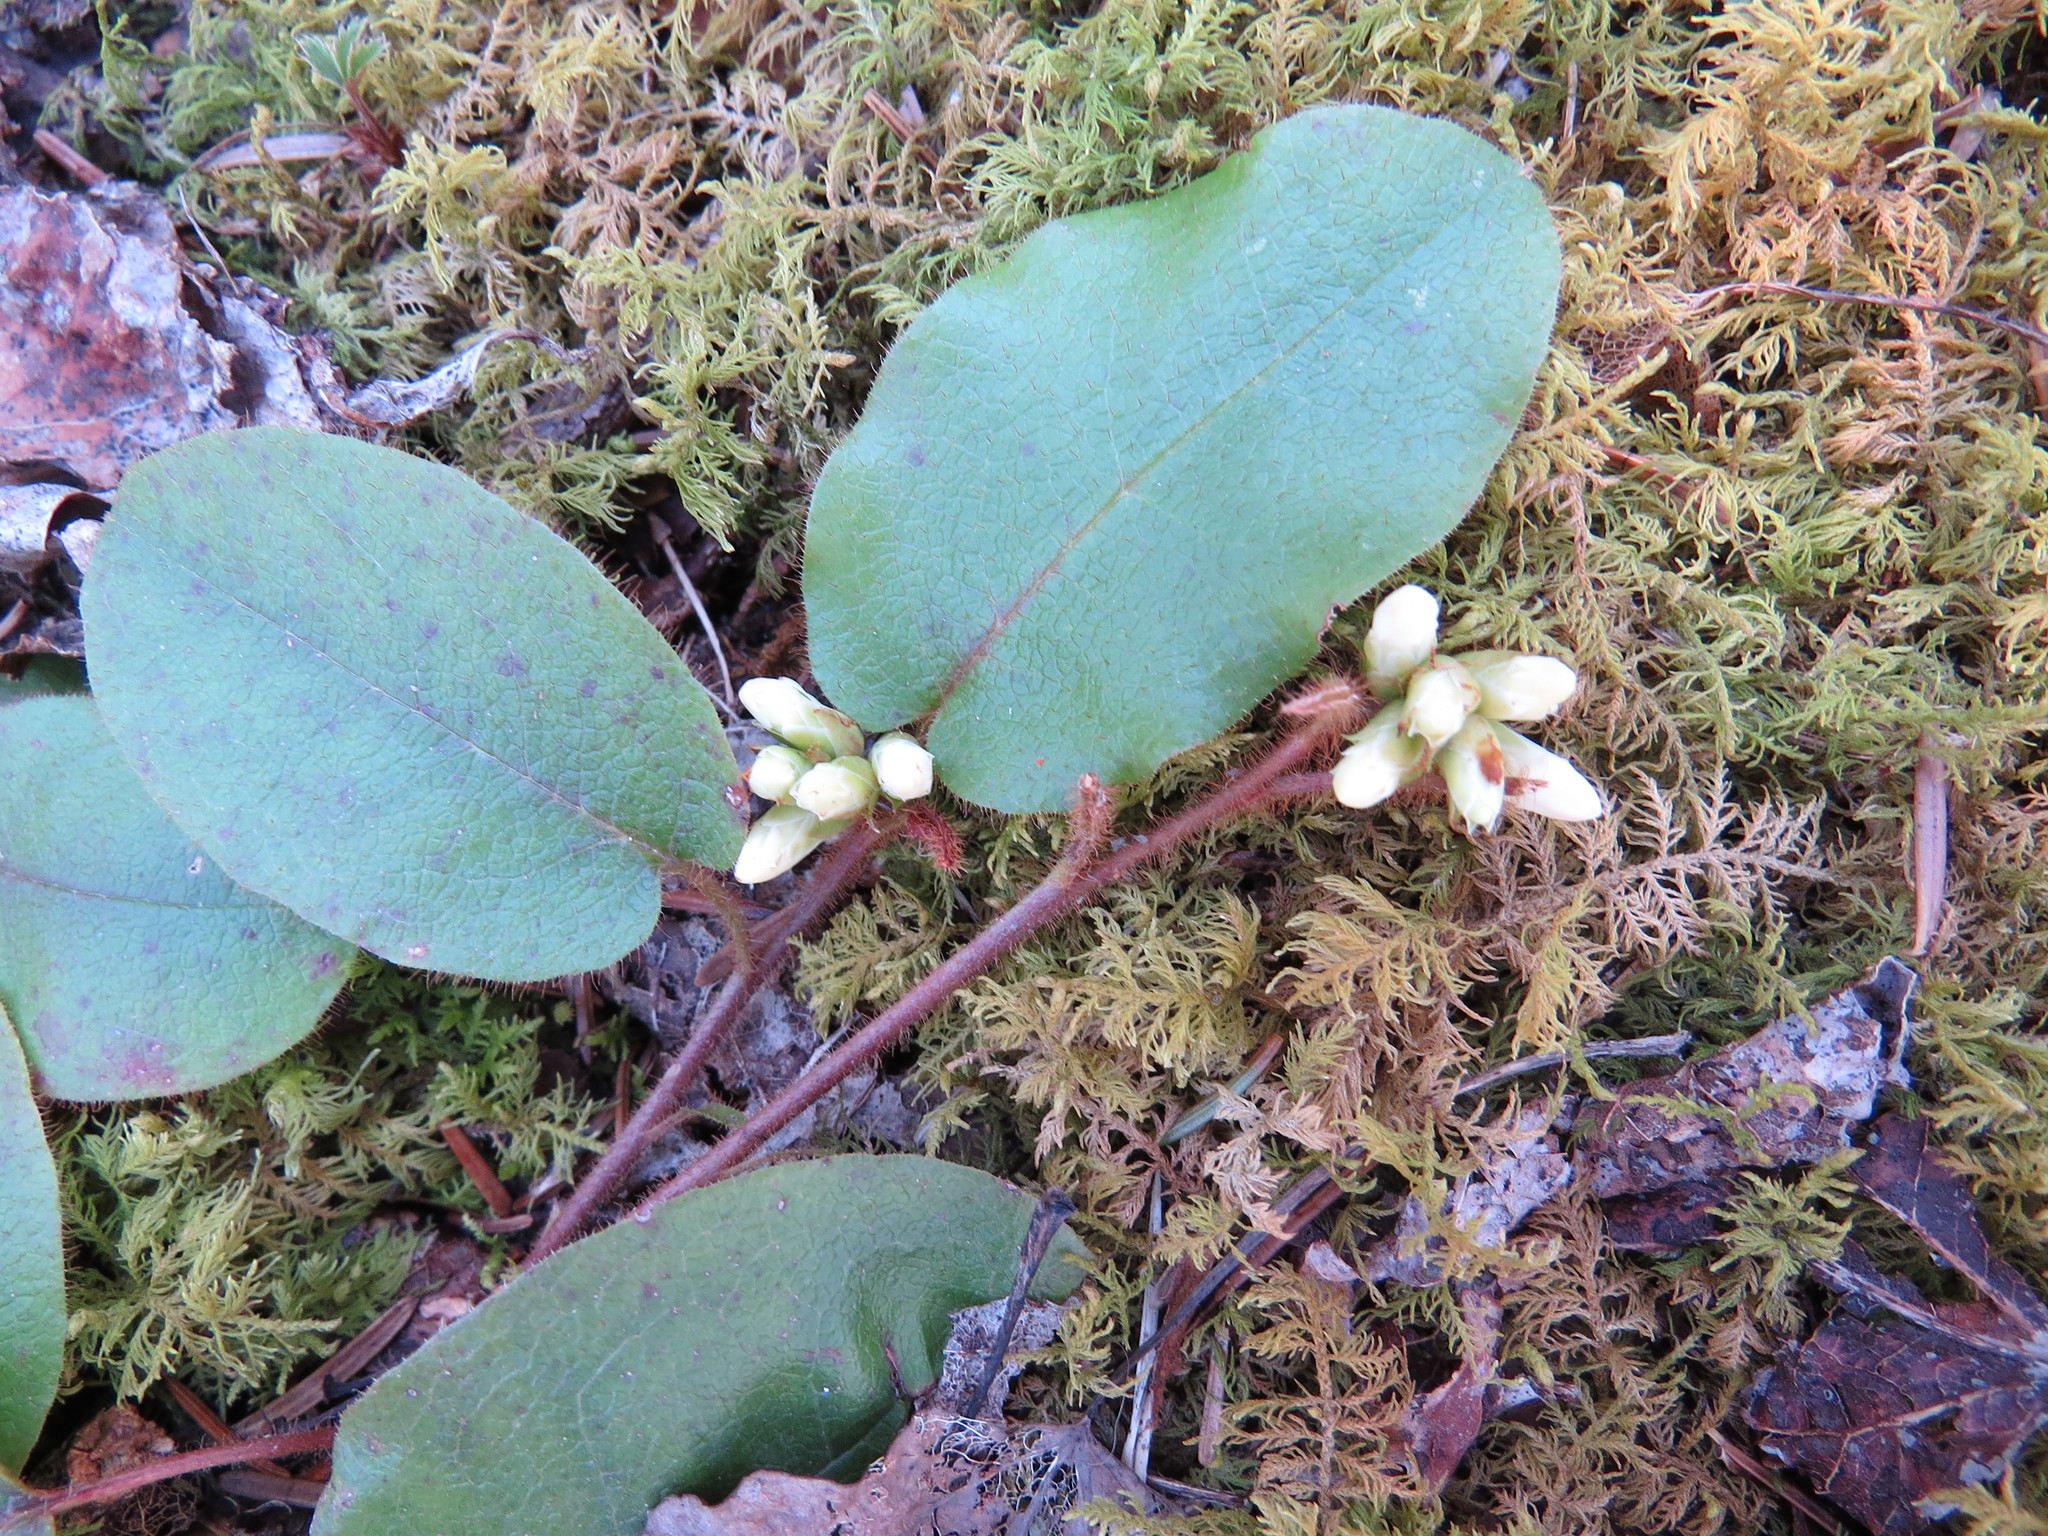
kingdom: Plantae
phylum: Tracheophyta
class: Magnoliopsida
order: Ericales
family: Ericaceae
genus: Epigaea
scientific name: Epigaea repens
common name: Gravelroot
